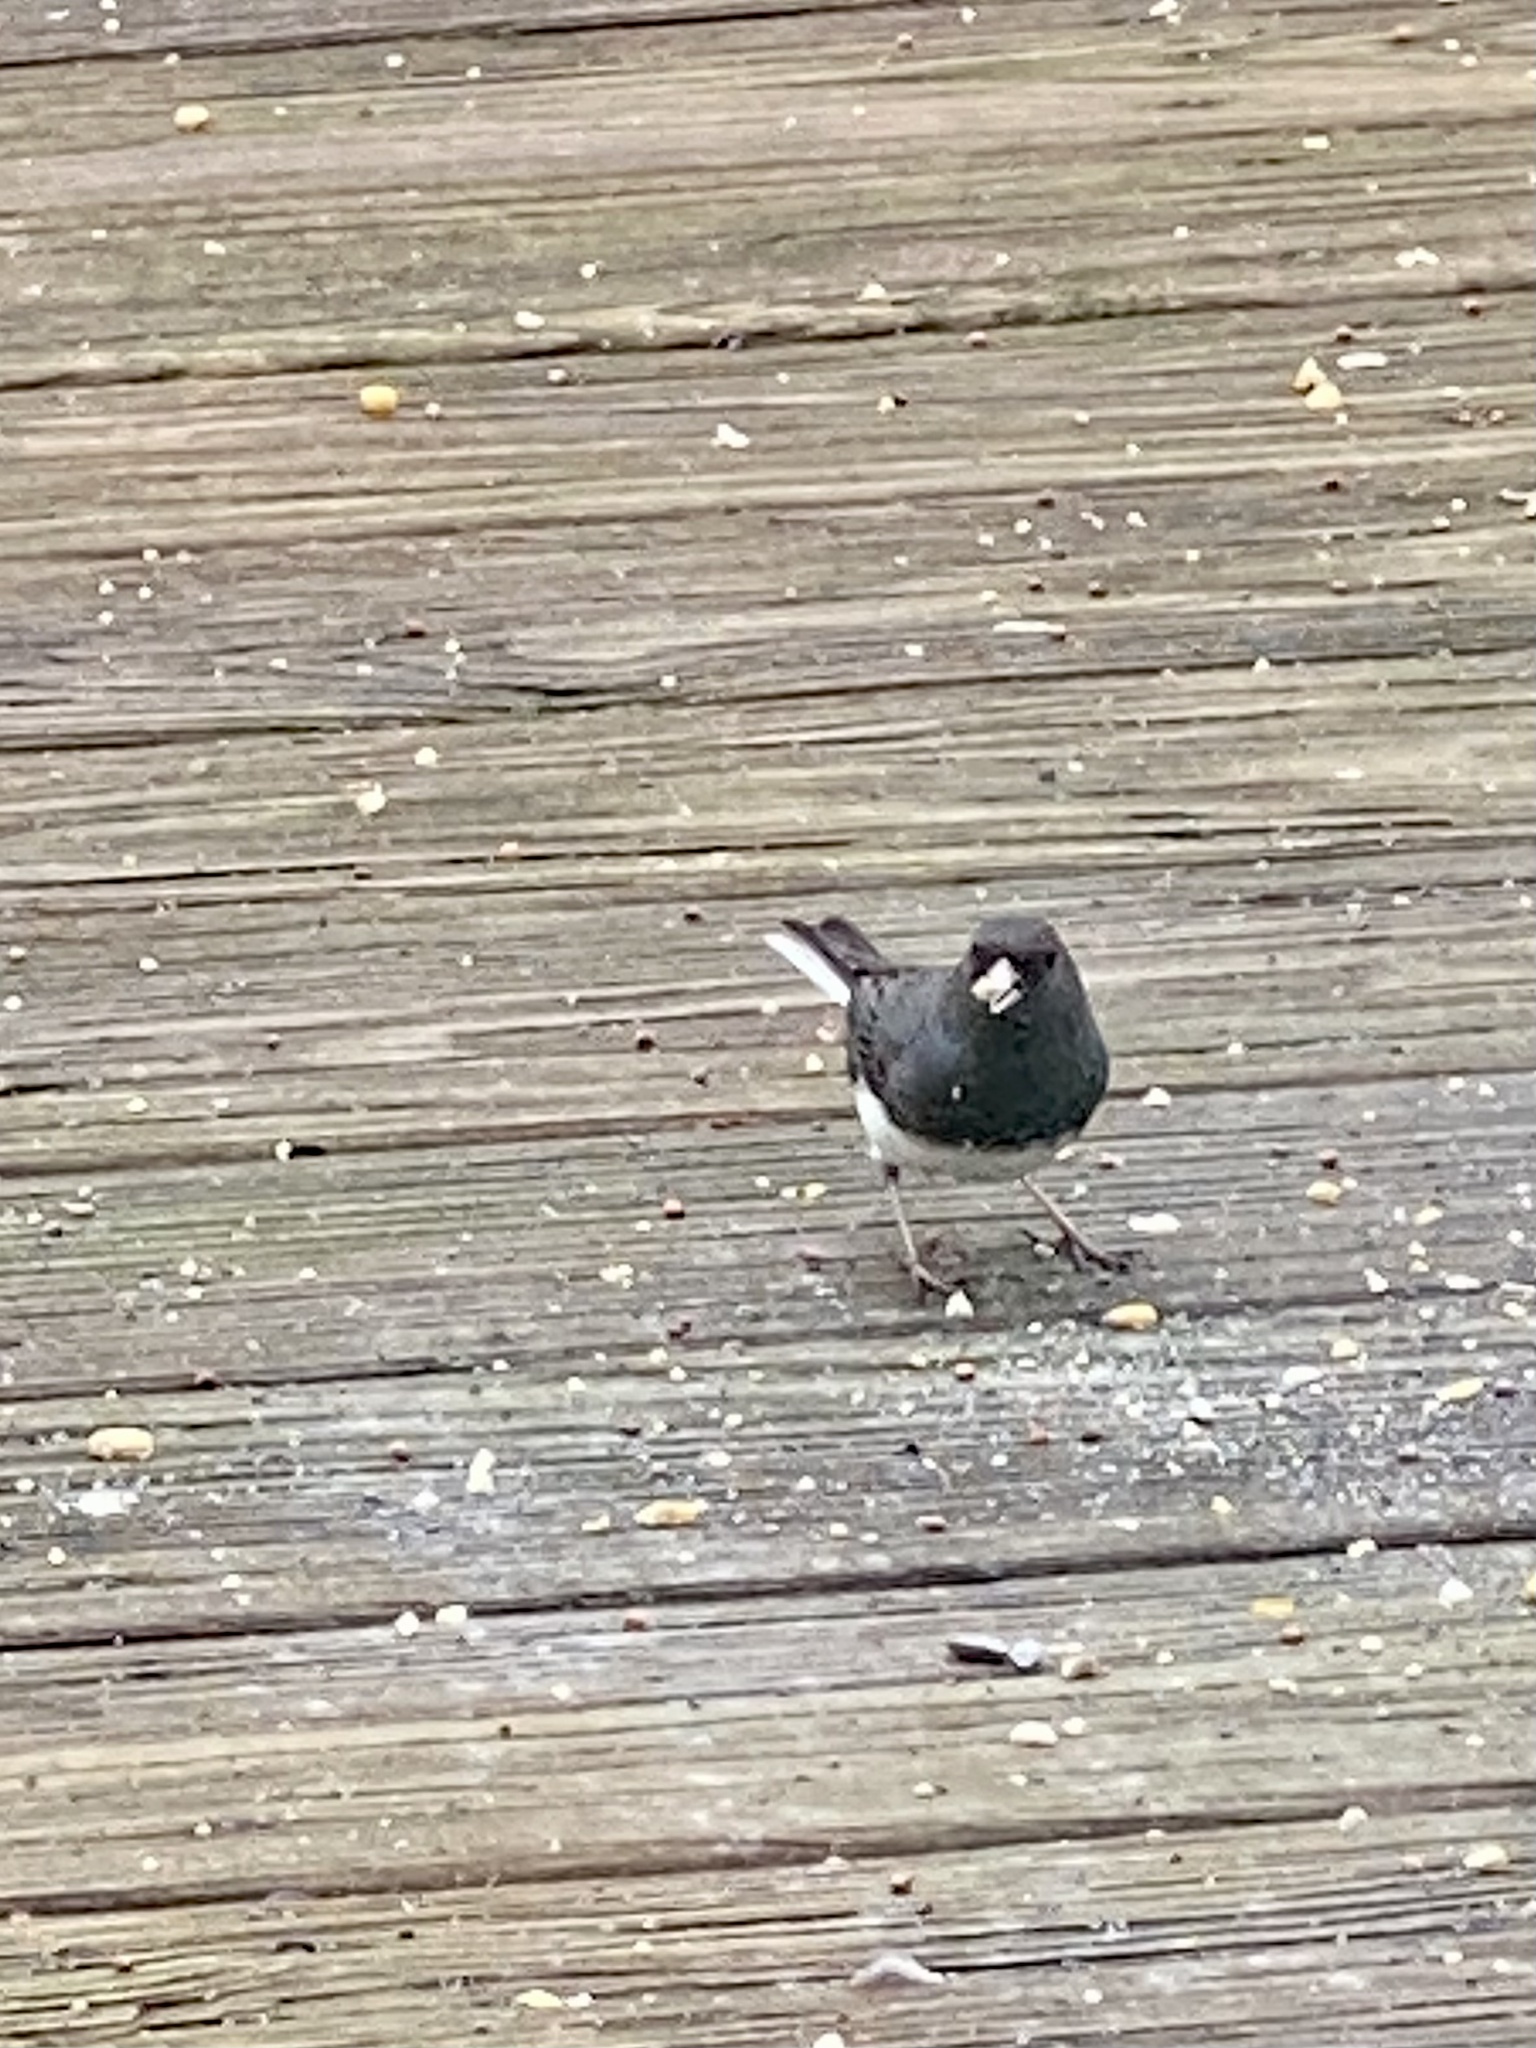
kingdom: Animalia
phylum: Chordata
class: Aves
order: Passeriformes
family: Passerellidae
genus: Junco
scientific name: Junco hyemalis
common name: Dark-eyed junco
